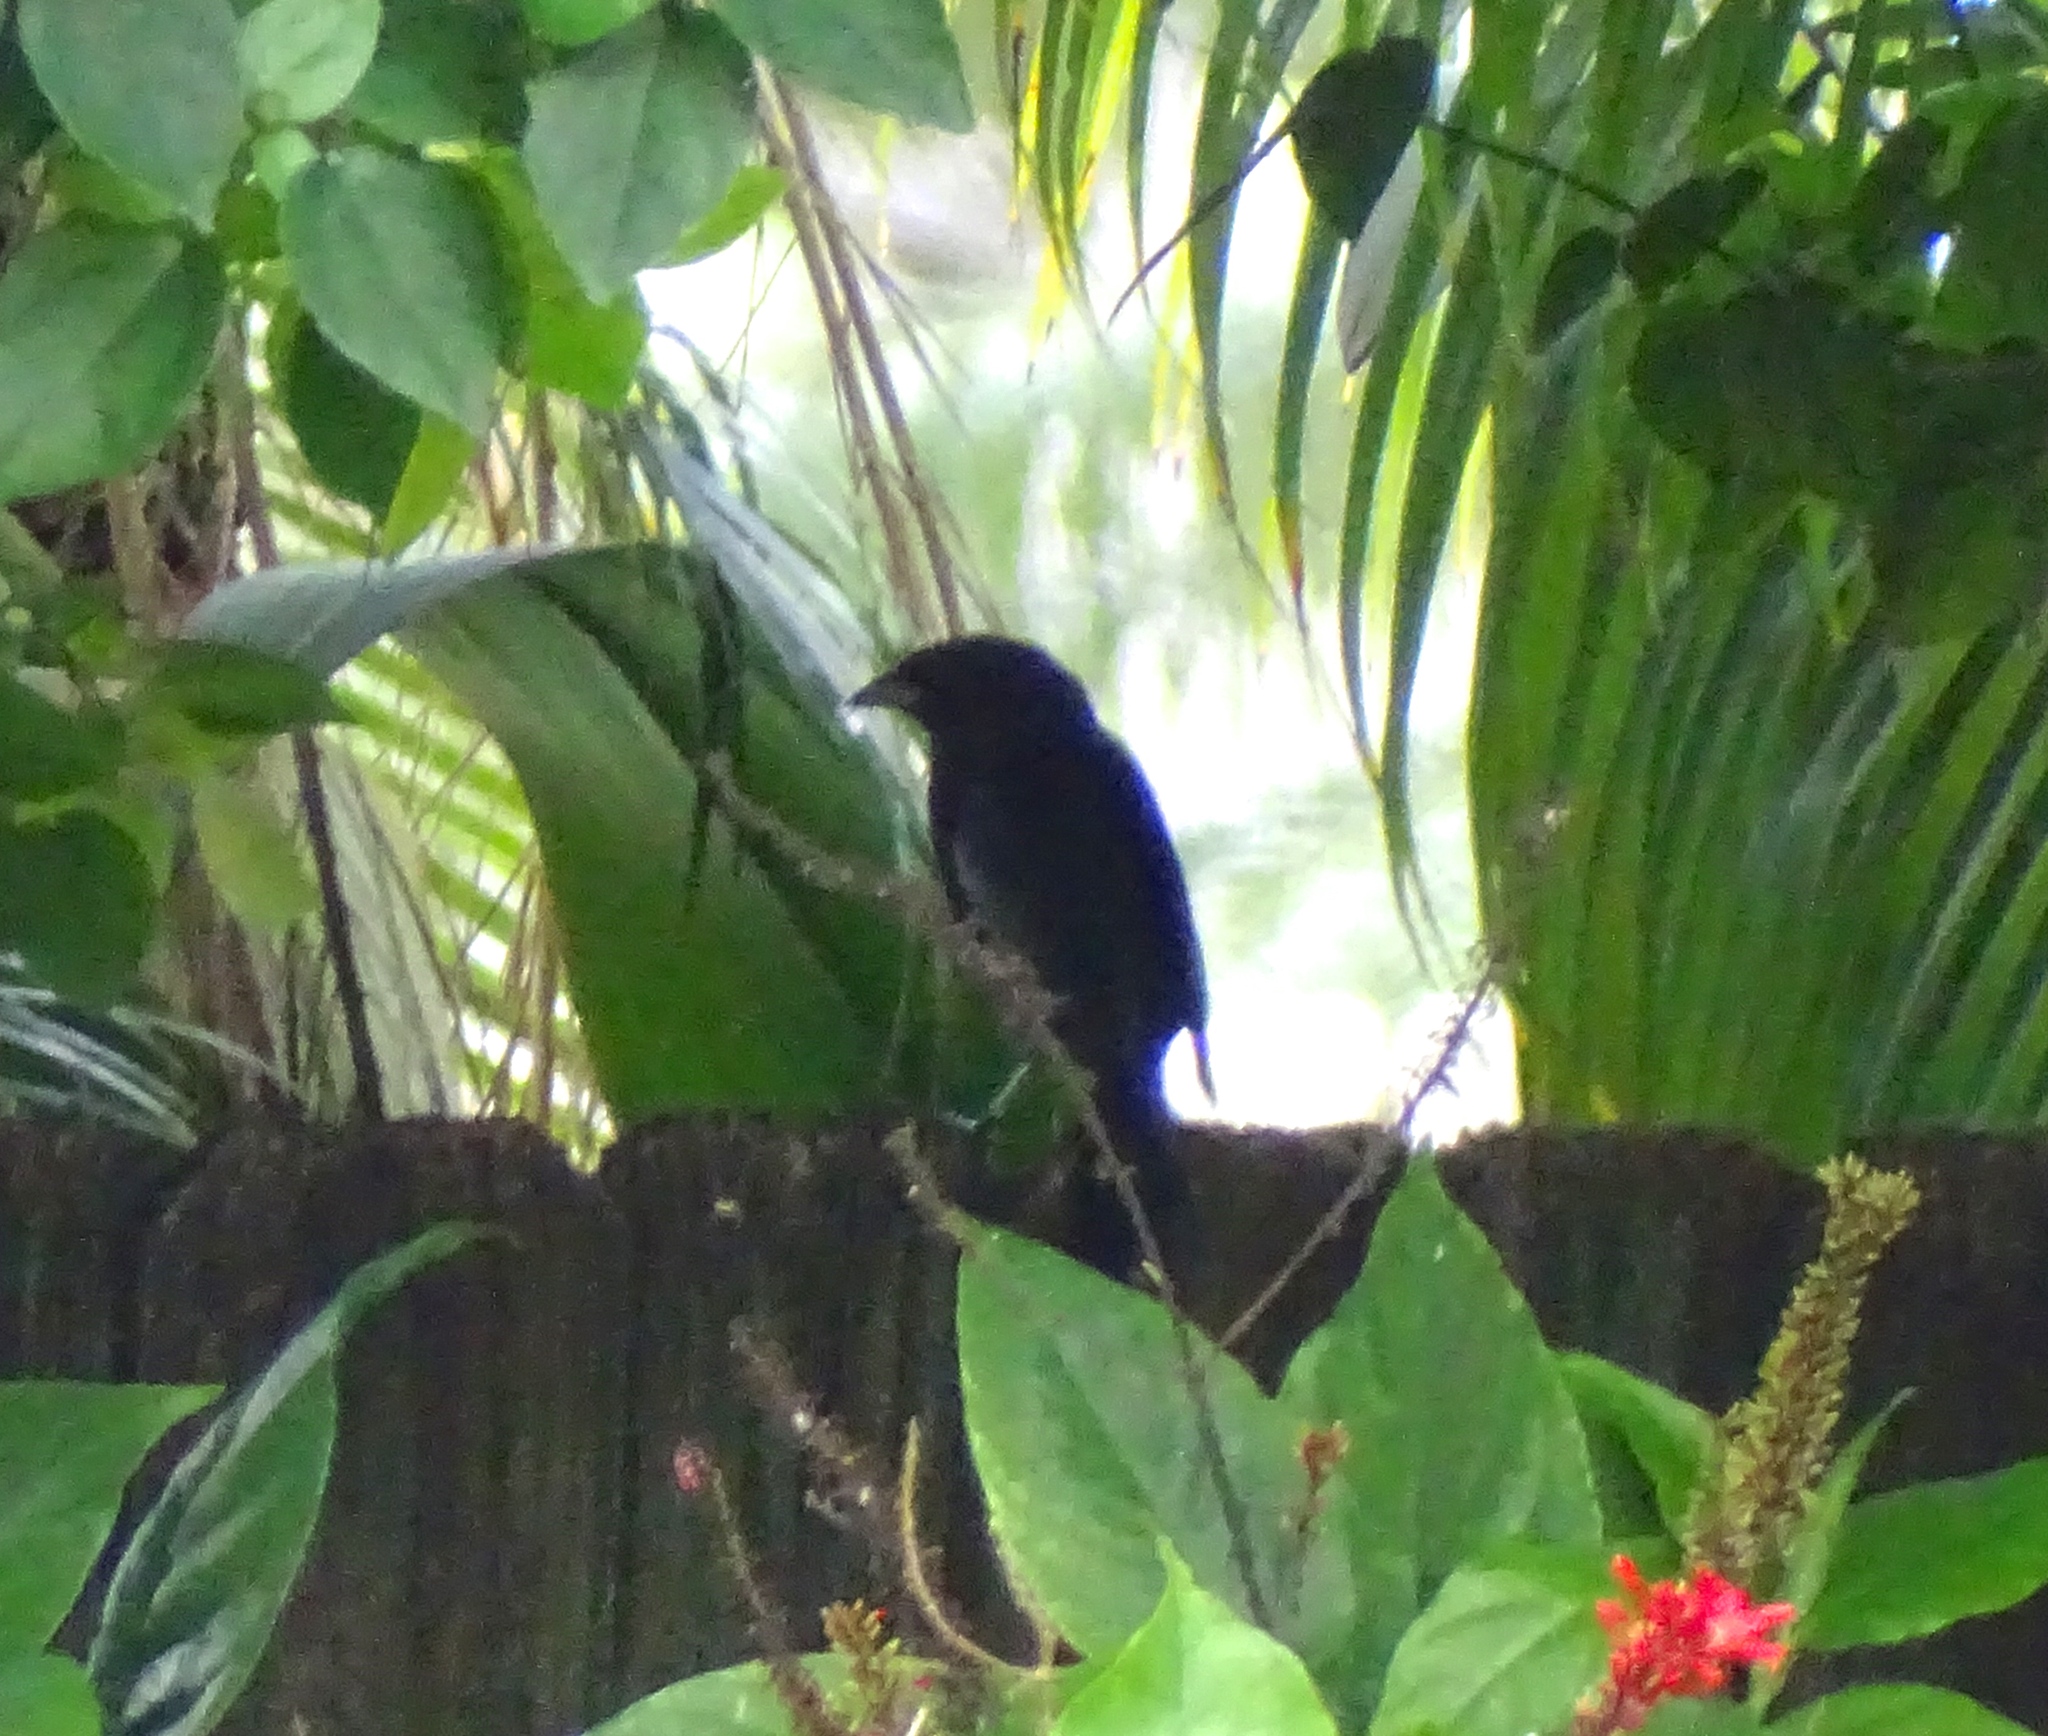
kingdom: Animalia
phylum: Chordata
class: Aves
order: Passeriformes
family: Icteridae
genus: Molothrus
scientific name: Molothrus bonariensis
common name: Shiny cowbird
